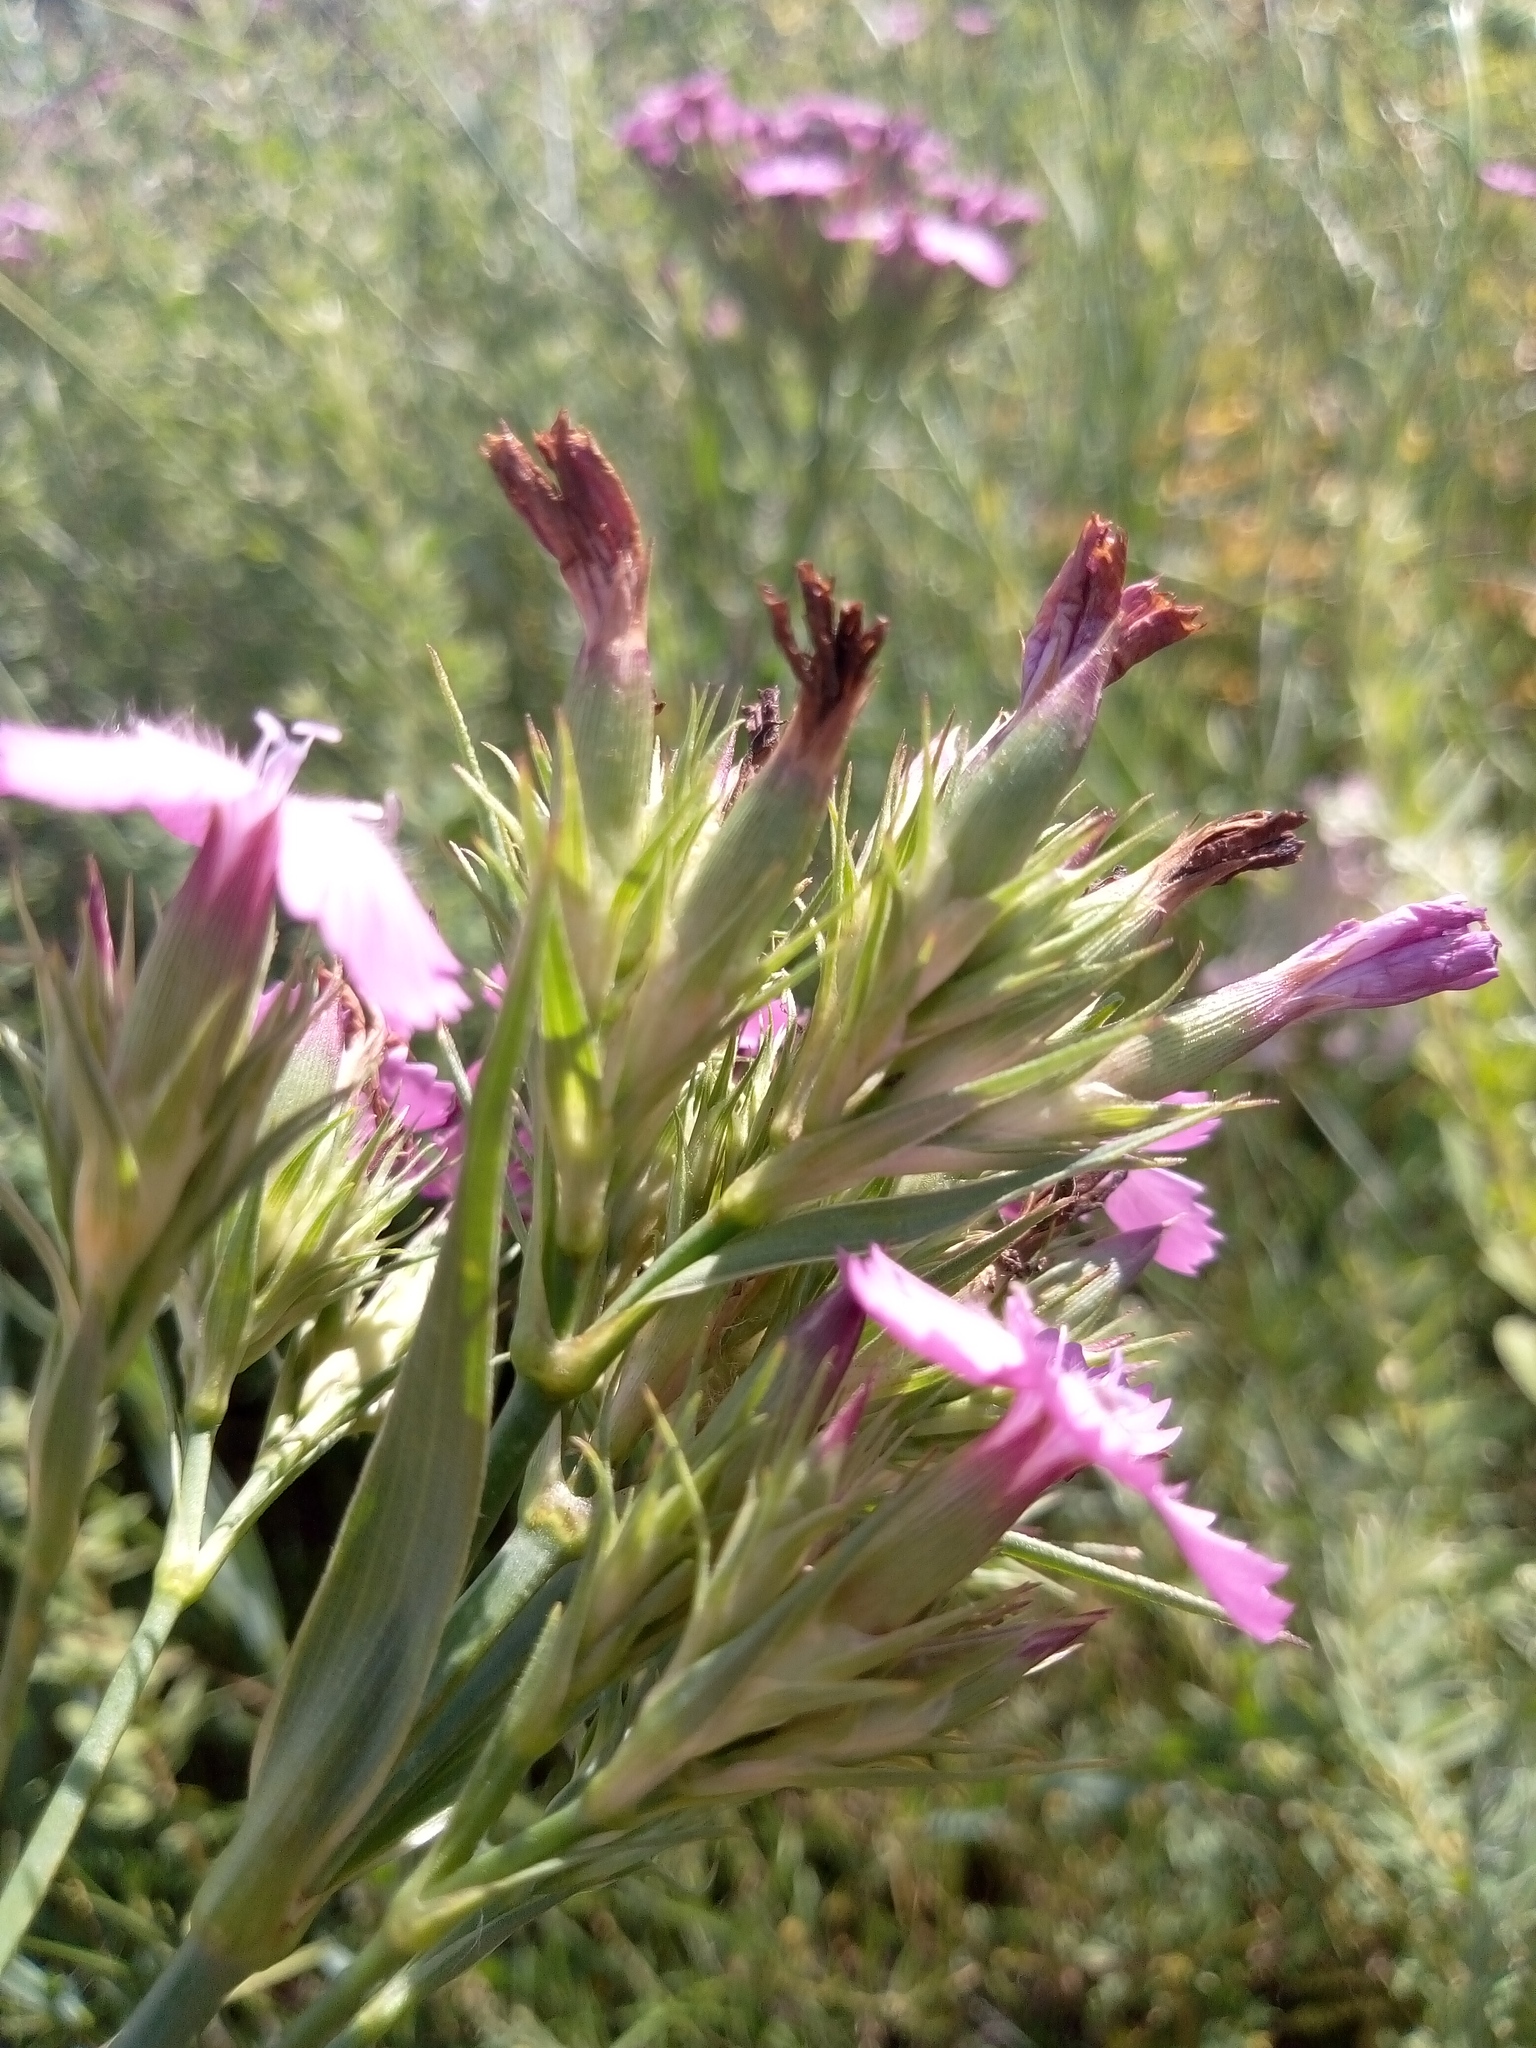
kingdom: Plantae
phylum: Tracheophyta
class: Magnoliopsida
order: Caryophyllales
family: Caryophyllaceae
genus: Dianthus
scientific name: Dianthus trifasciculatus
